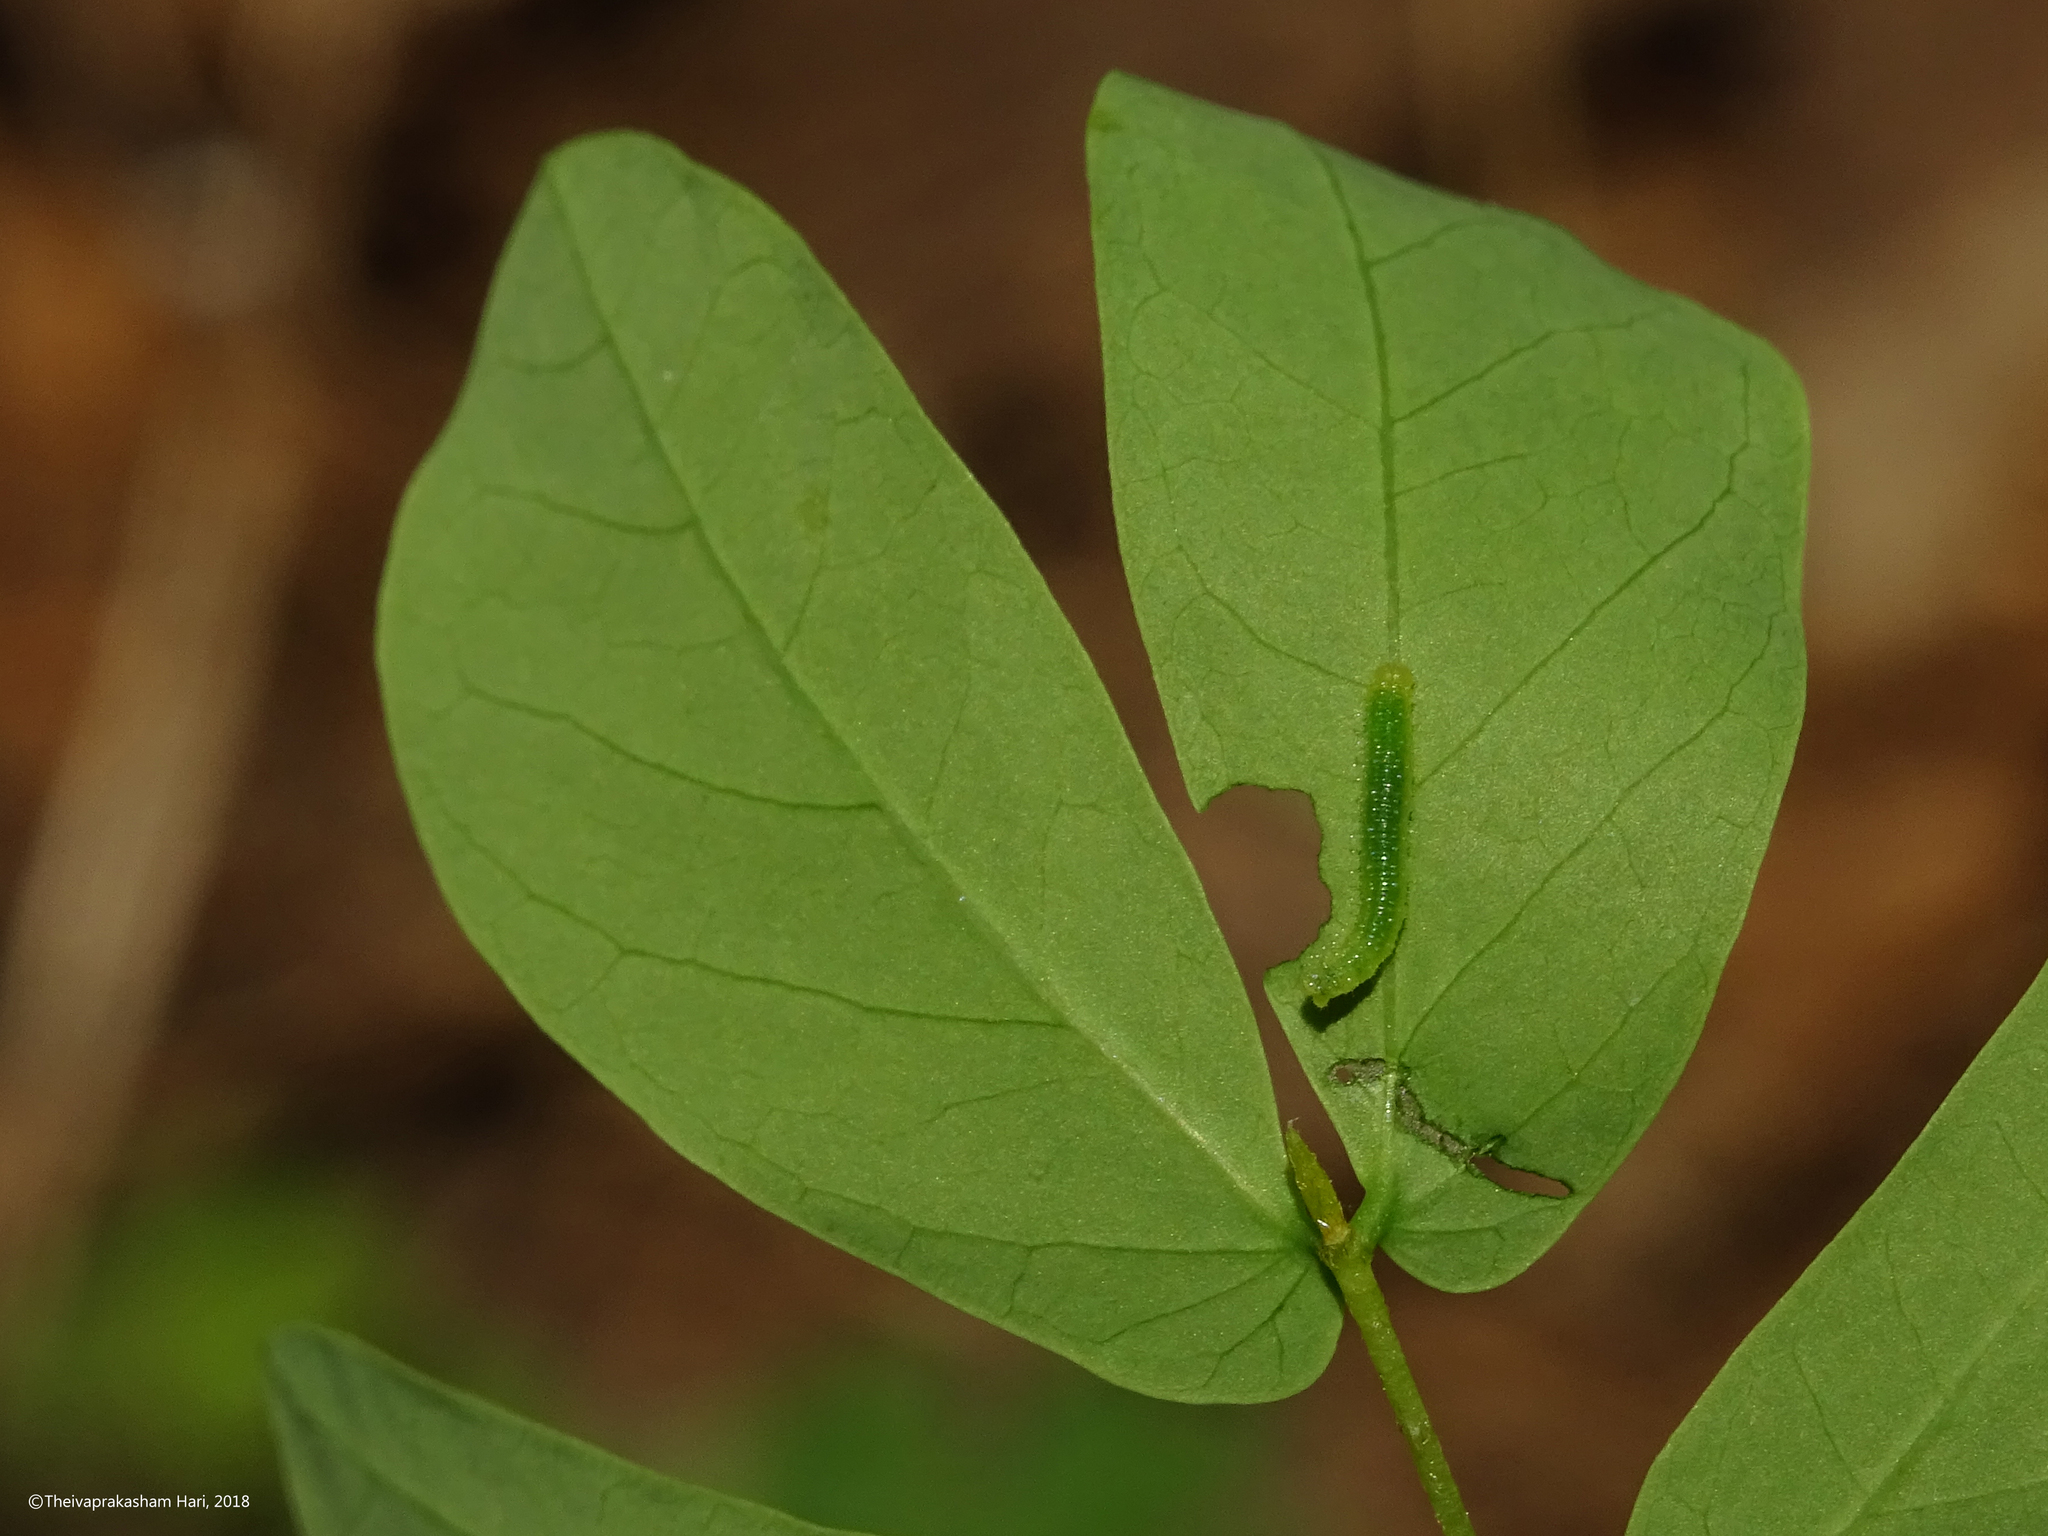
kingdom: Animalia
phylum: Arthropoda
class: Insecta
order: Lepidoptera
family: Pieridae
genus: Eurema
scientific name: Eurema hecabe
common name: Pale grass yellow
